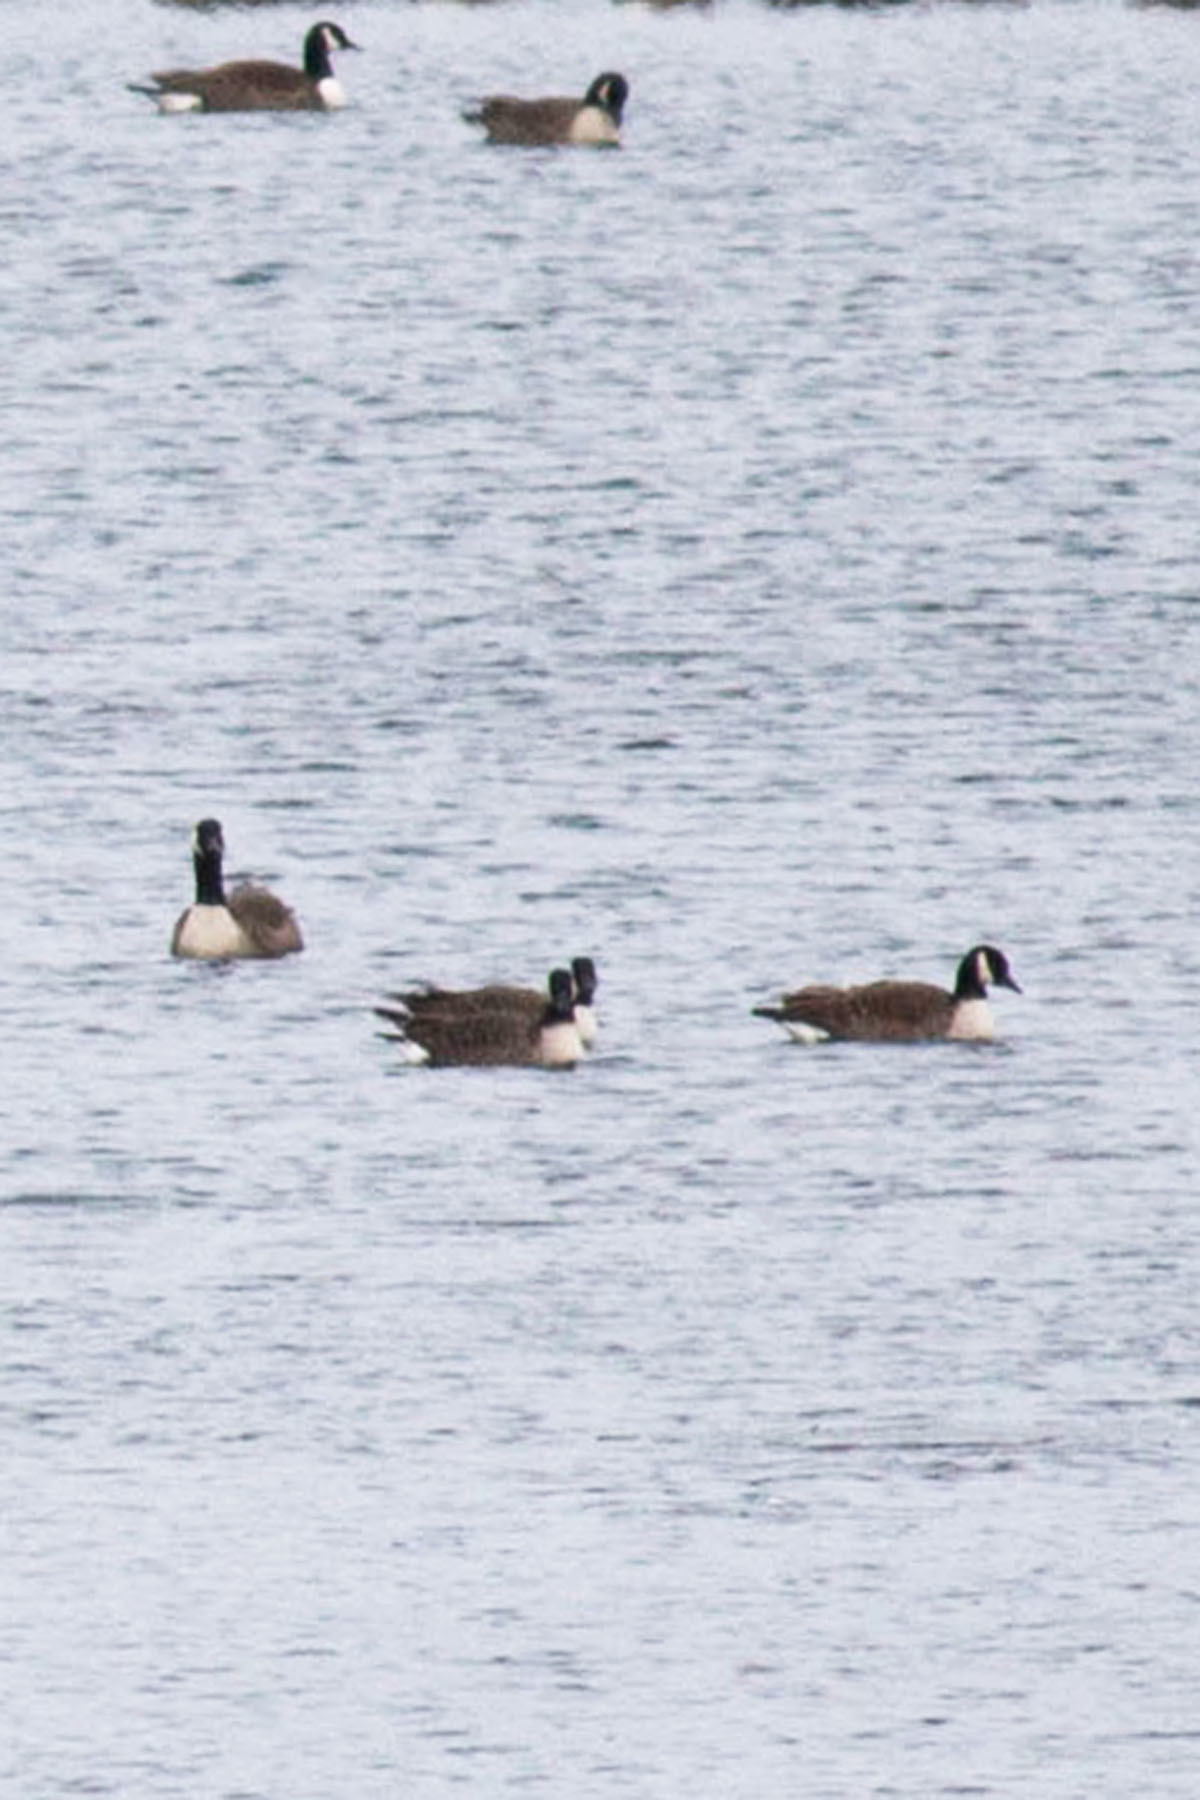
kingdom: Animalia
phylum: Chordata
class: Aves
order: Anseriformes
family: Anatidae
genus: Branta
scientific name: Branta canadensis
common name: Canada goose
